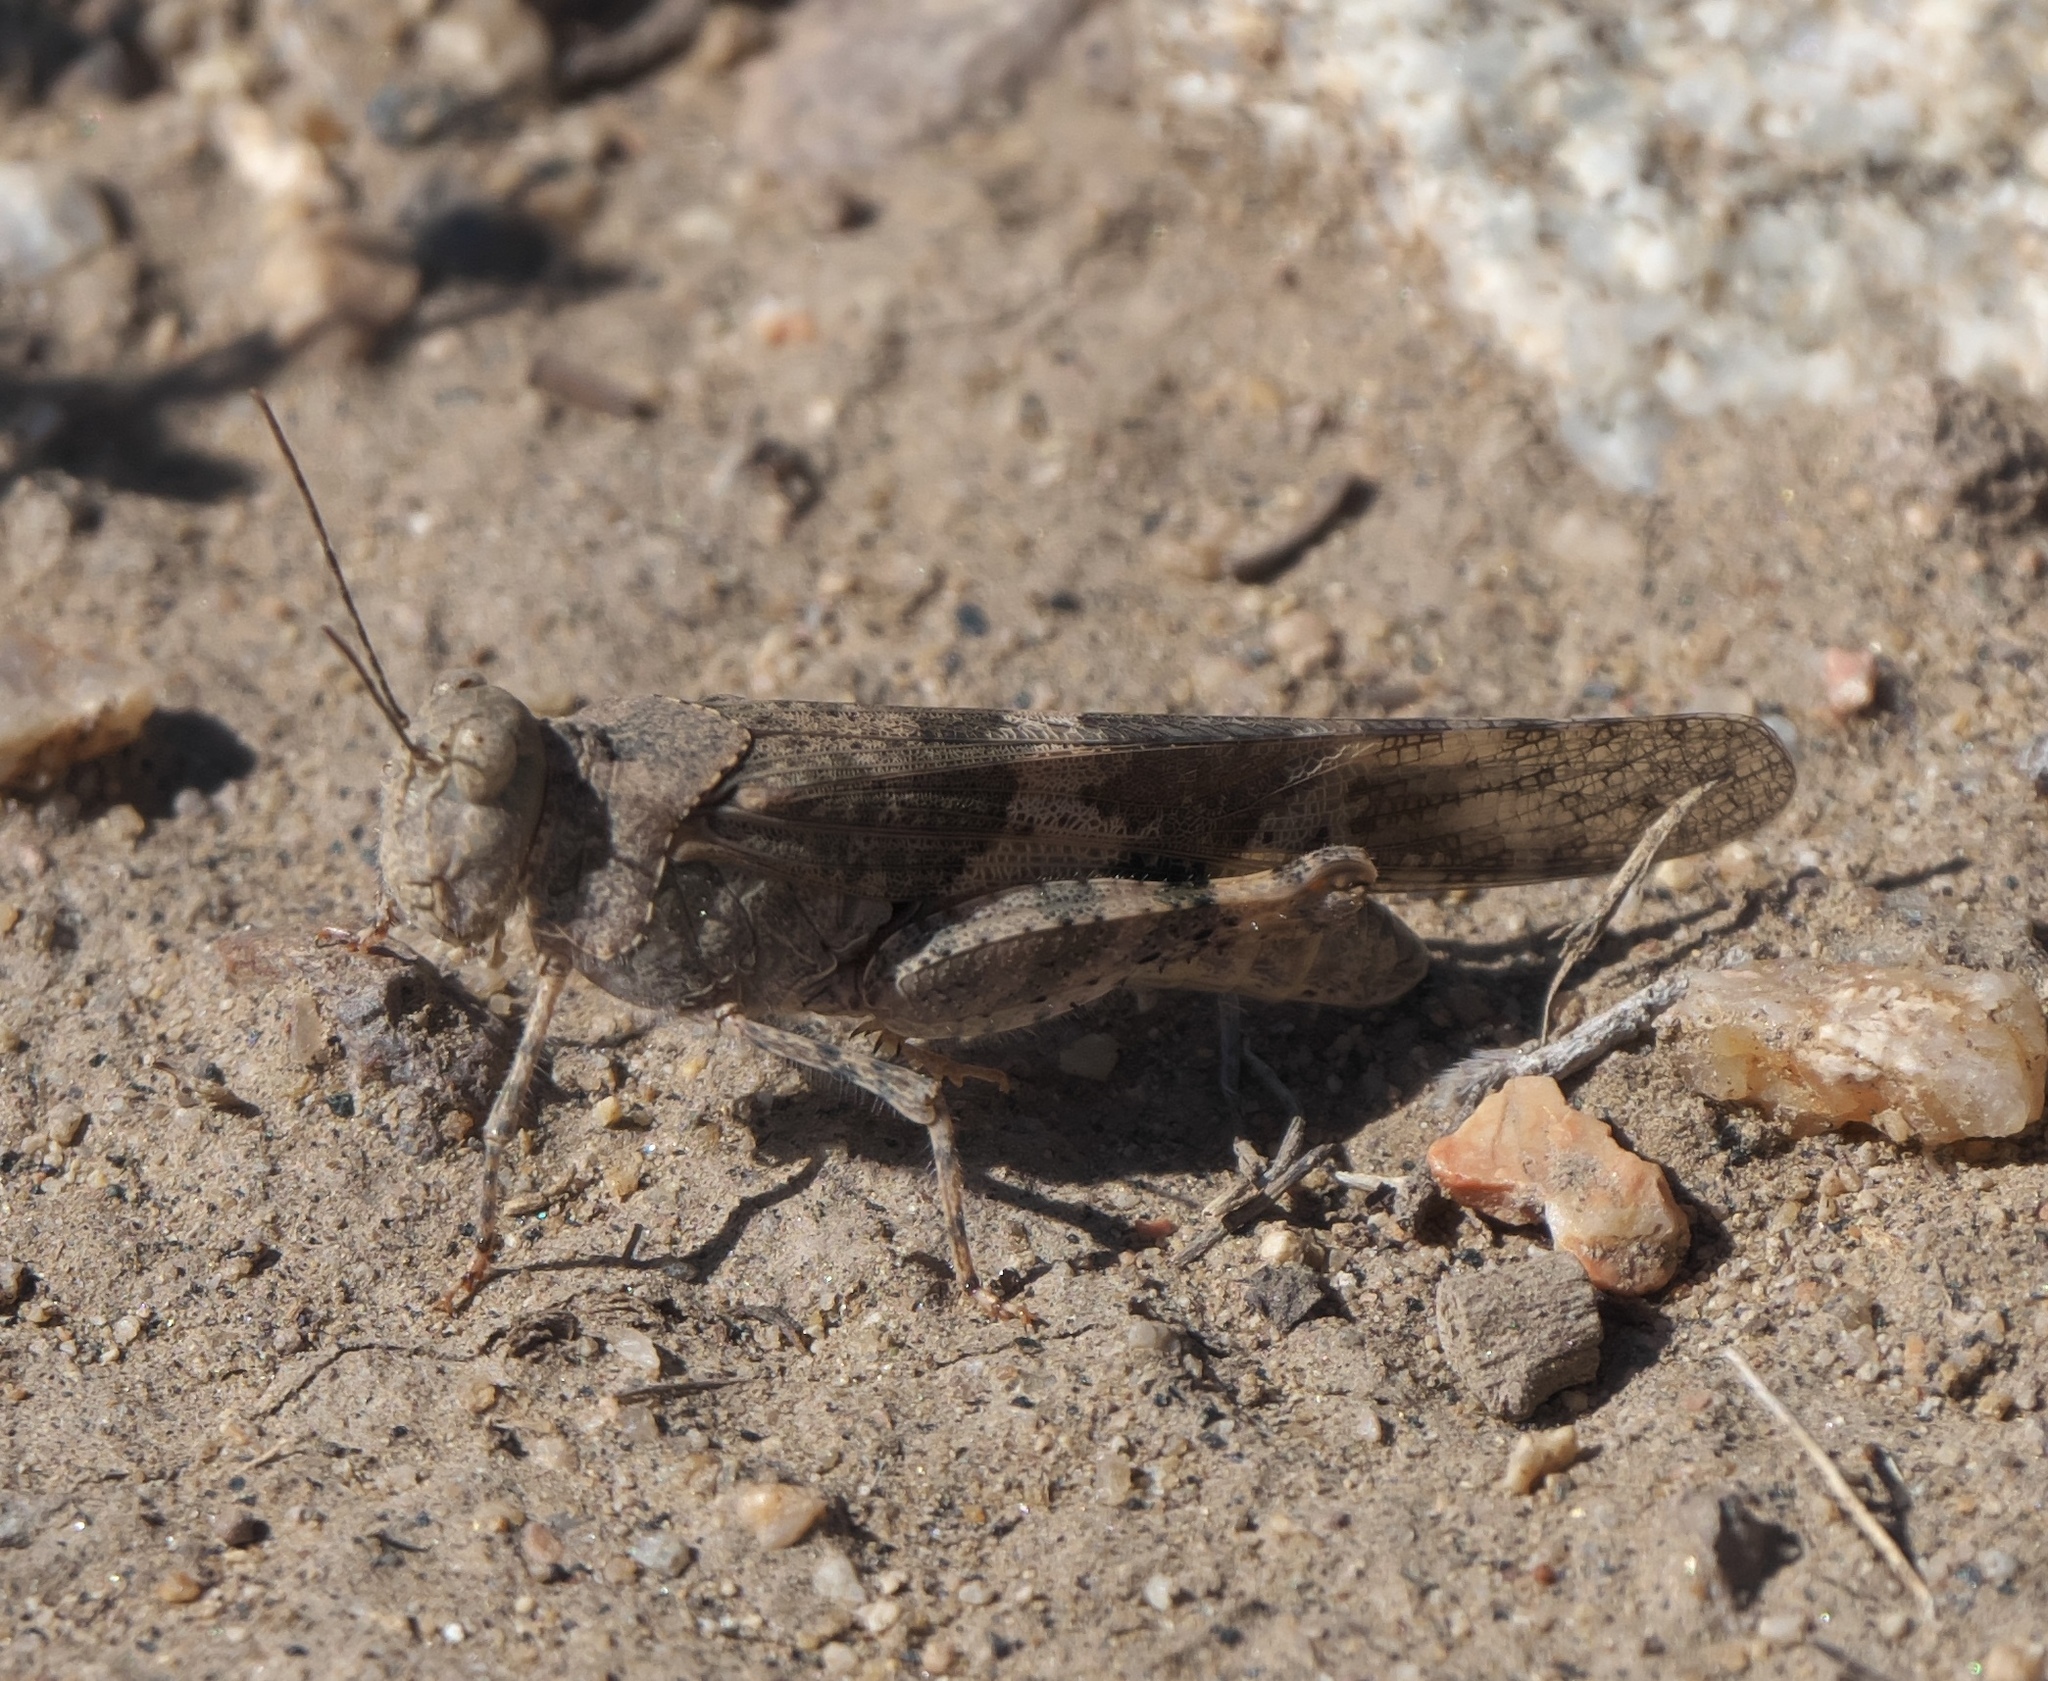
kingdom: Animalia
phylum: Arthropoda
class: Insecta
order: Orthoptera
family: Acrididae
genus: Trimerotropis
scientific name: Trimerotropis pallidipennis
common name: Pallid-winged grasshopper
